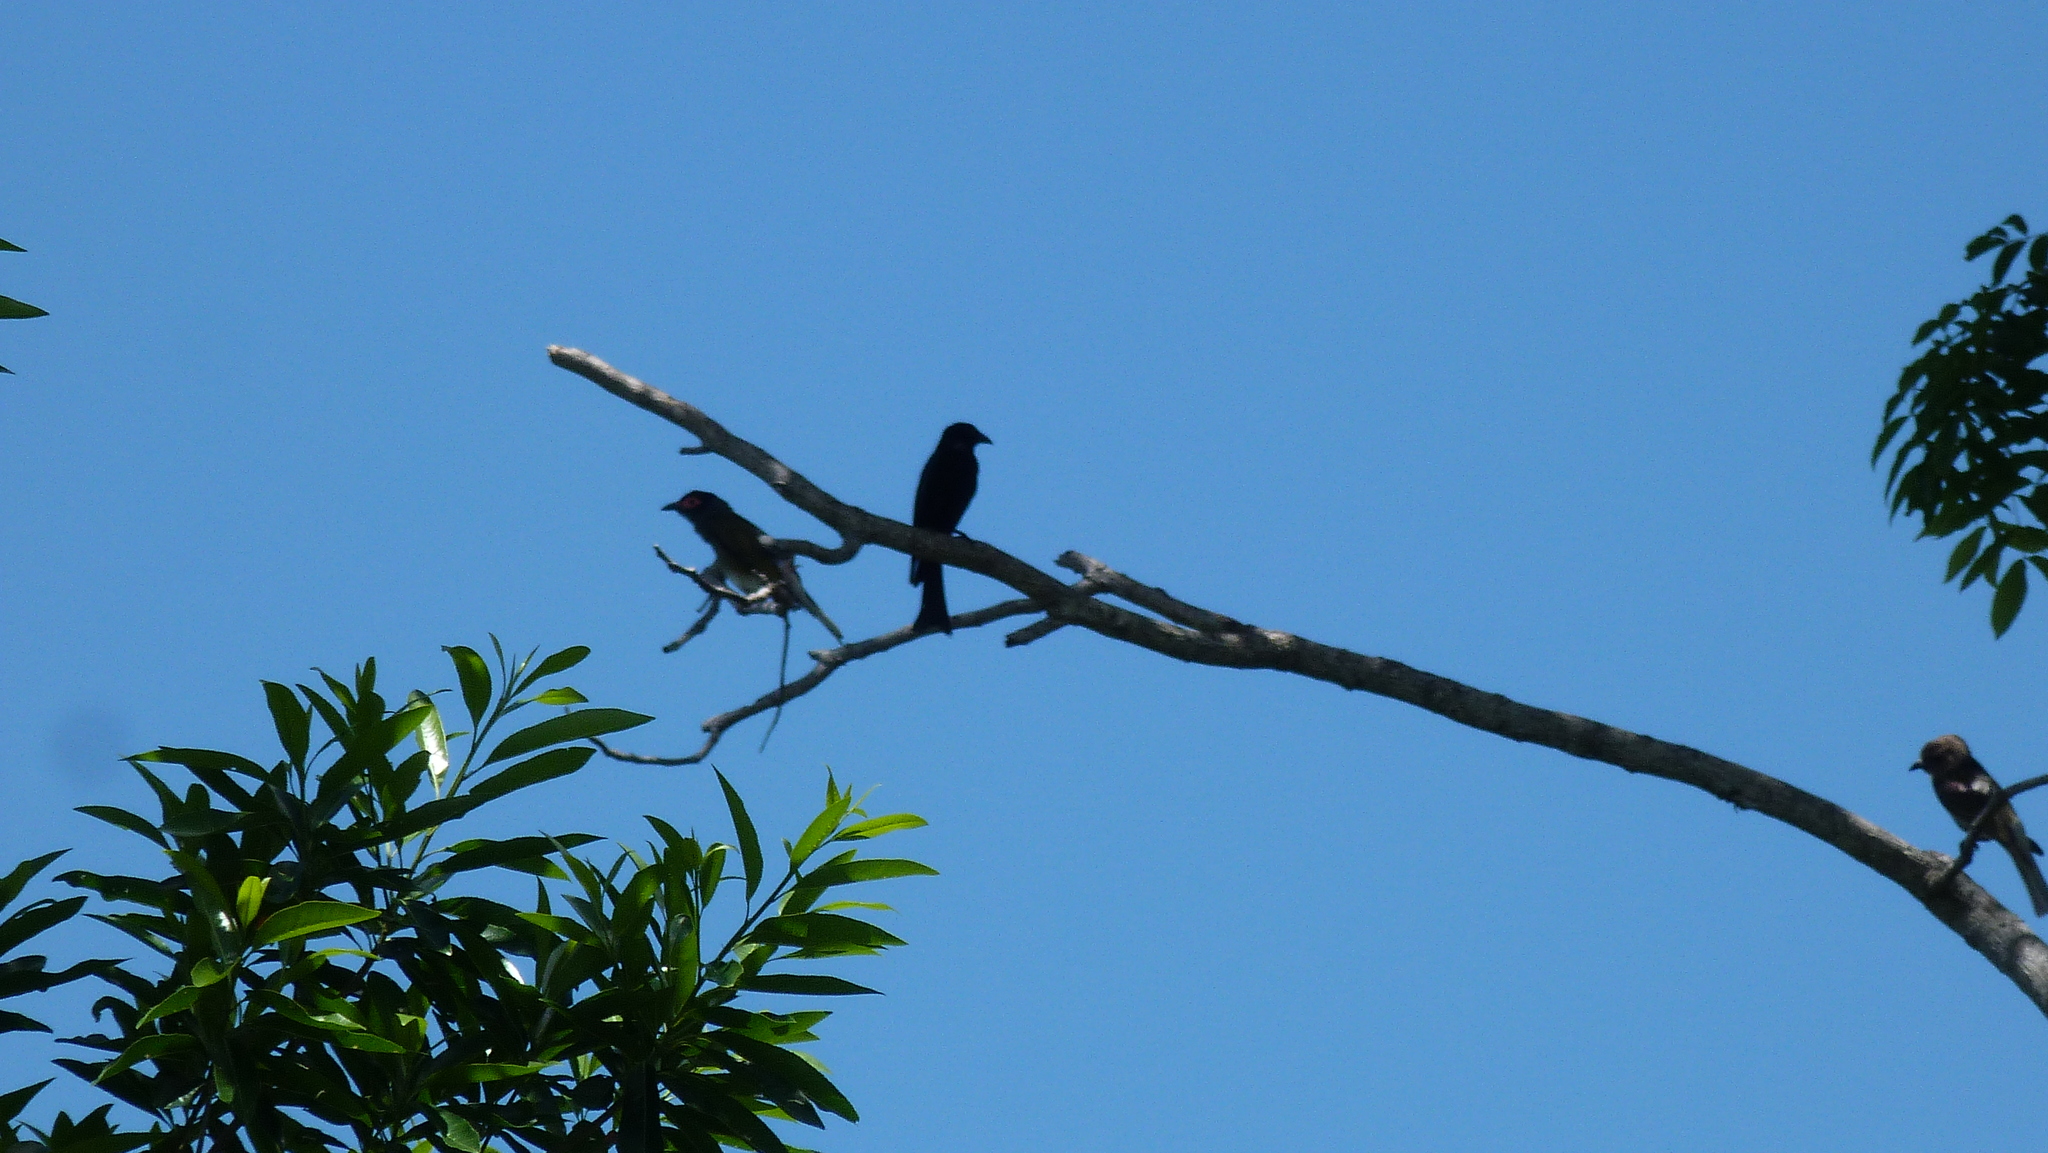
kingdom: Animalia
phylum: Chordata
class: Aves
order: Passeriformes
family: Dicruridae
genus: Dicrurus
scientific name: Dicrurus bracteatus
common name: Spangled drongo
